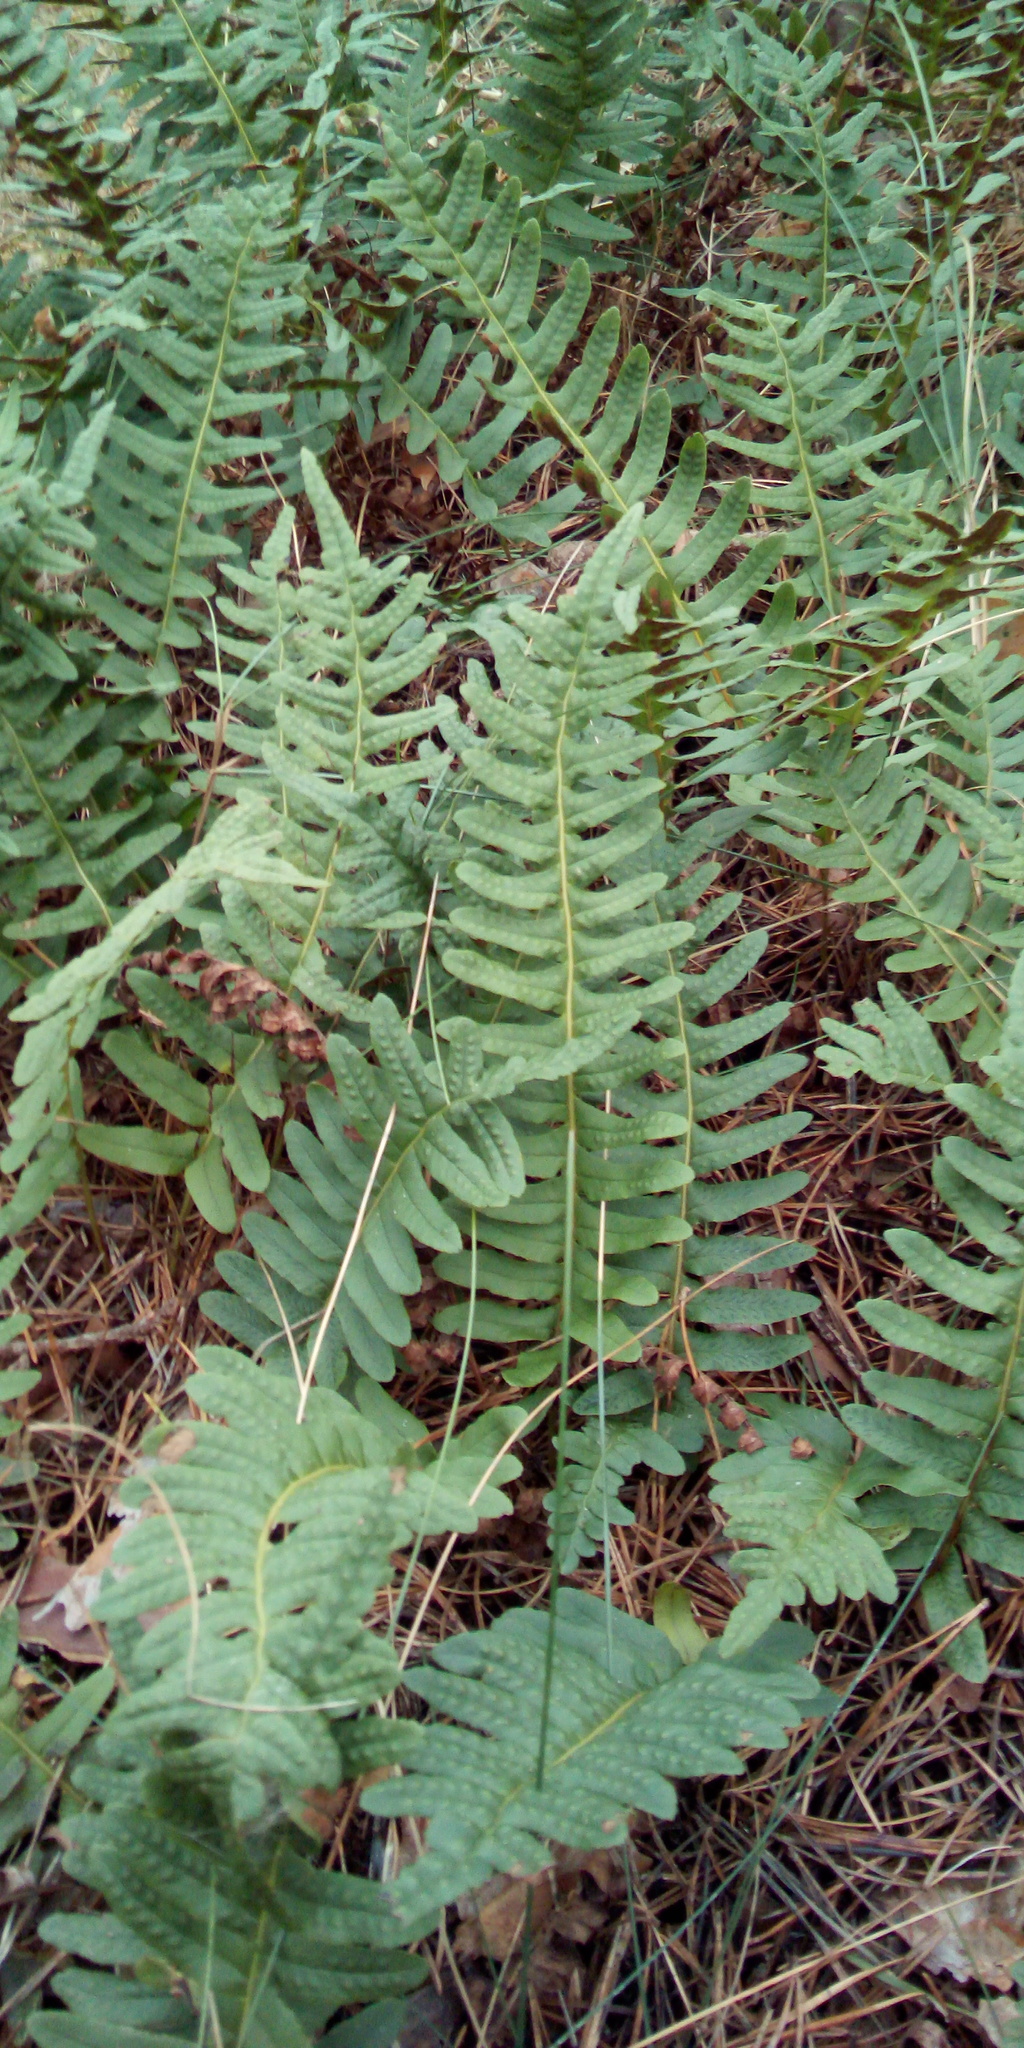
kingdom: Plantae
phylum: Tracheophyta
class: Polypodiopsida
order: Polypodiales
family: Polypodiaceae
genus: Polypodium
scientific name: Polypodium vulgare
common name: Common polypody
